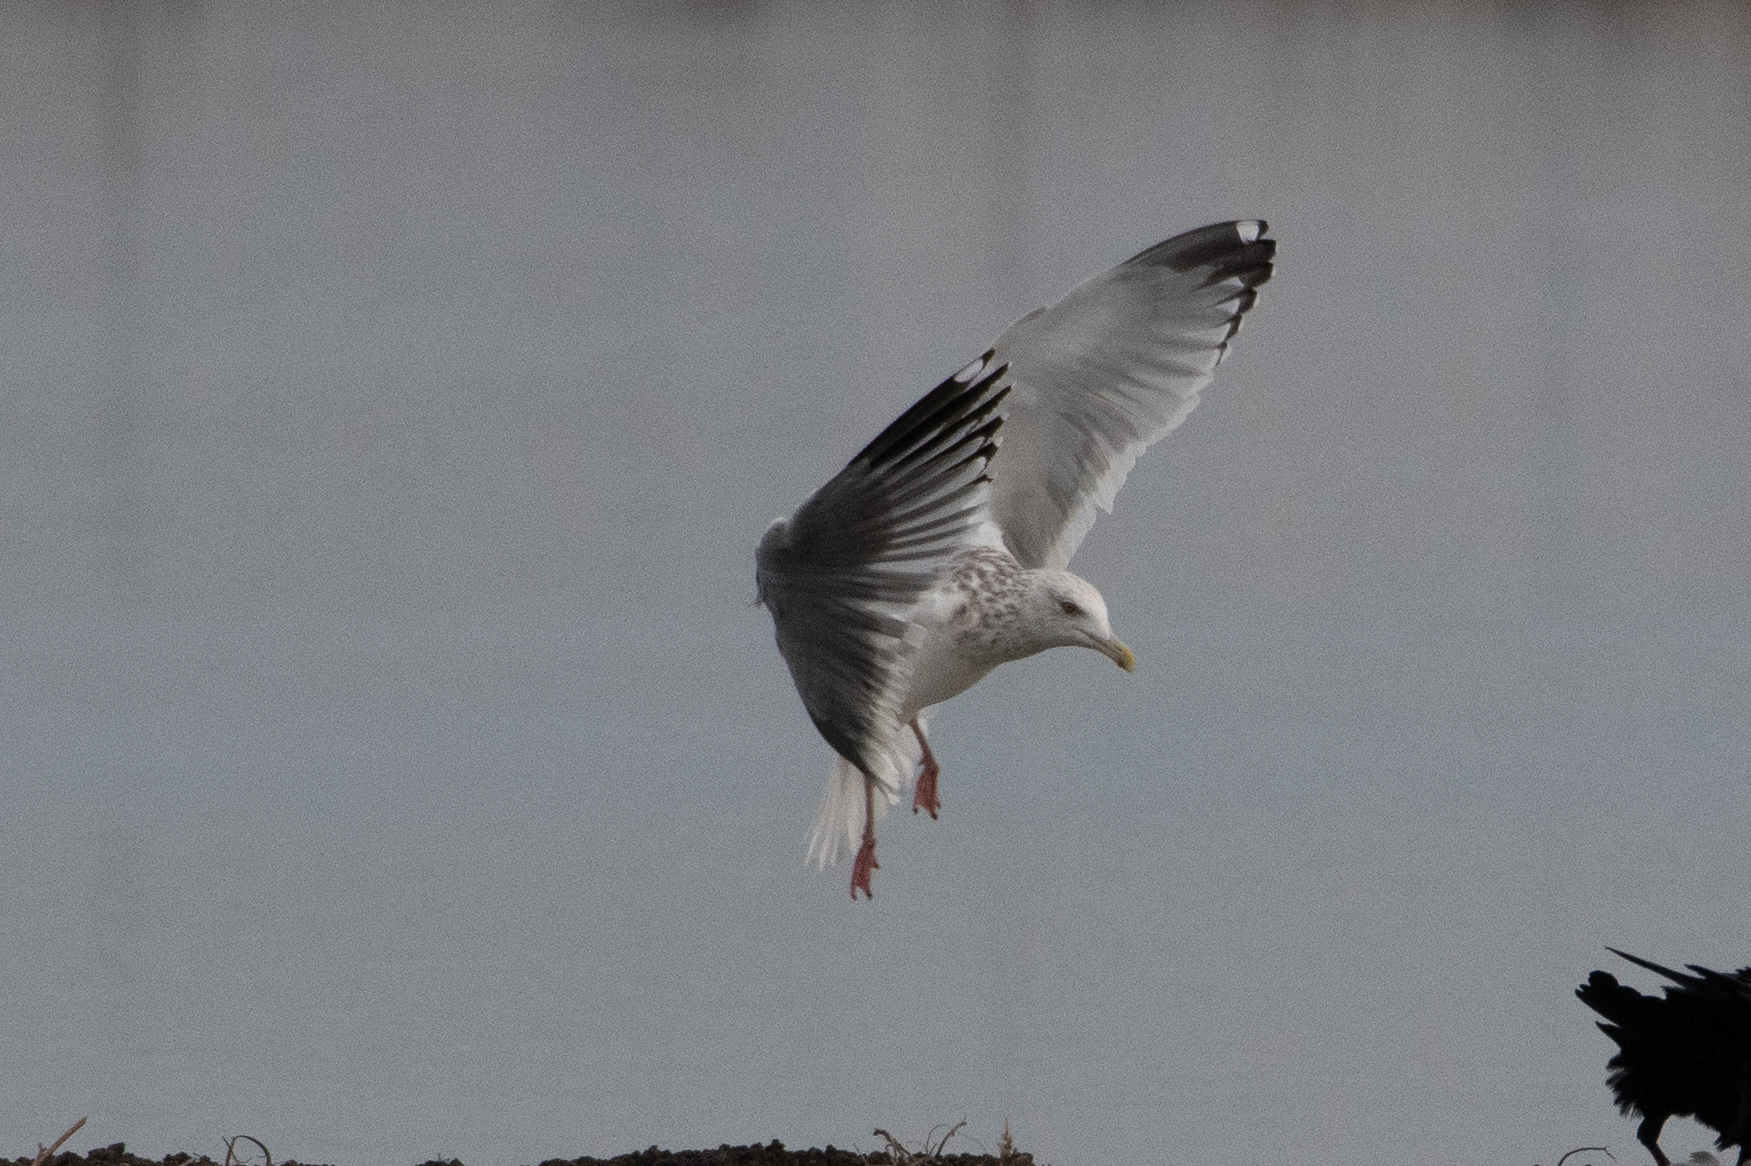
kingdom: Animalia
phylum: Chordata
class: Aves
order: Charadriiformes
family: Laridae
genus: Larus
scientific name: Larus argentatus
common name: Herring gull
